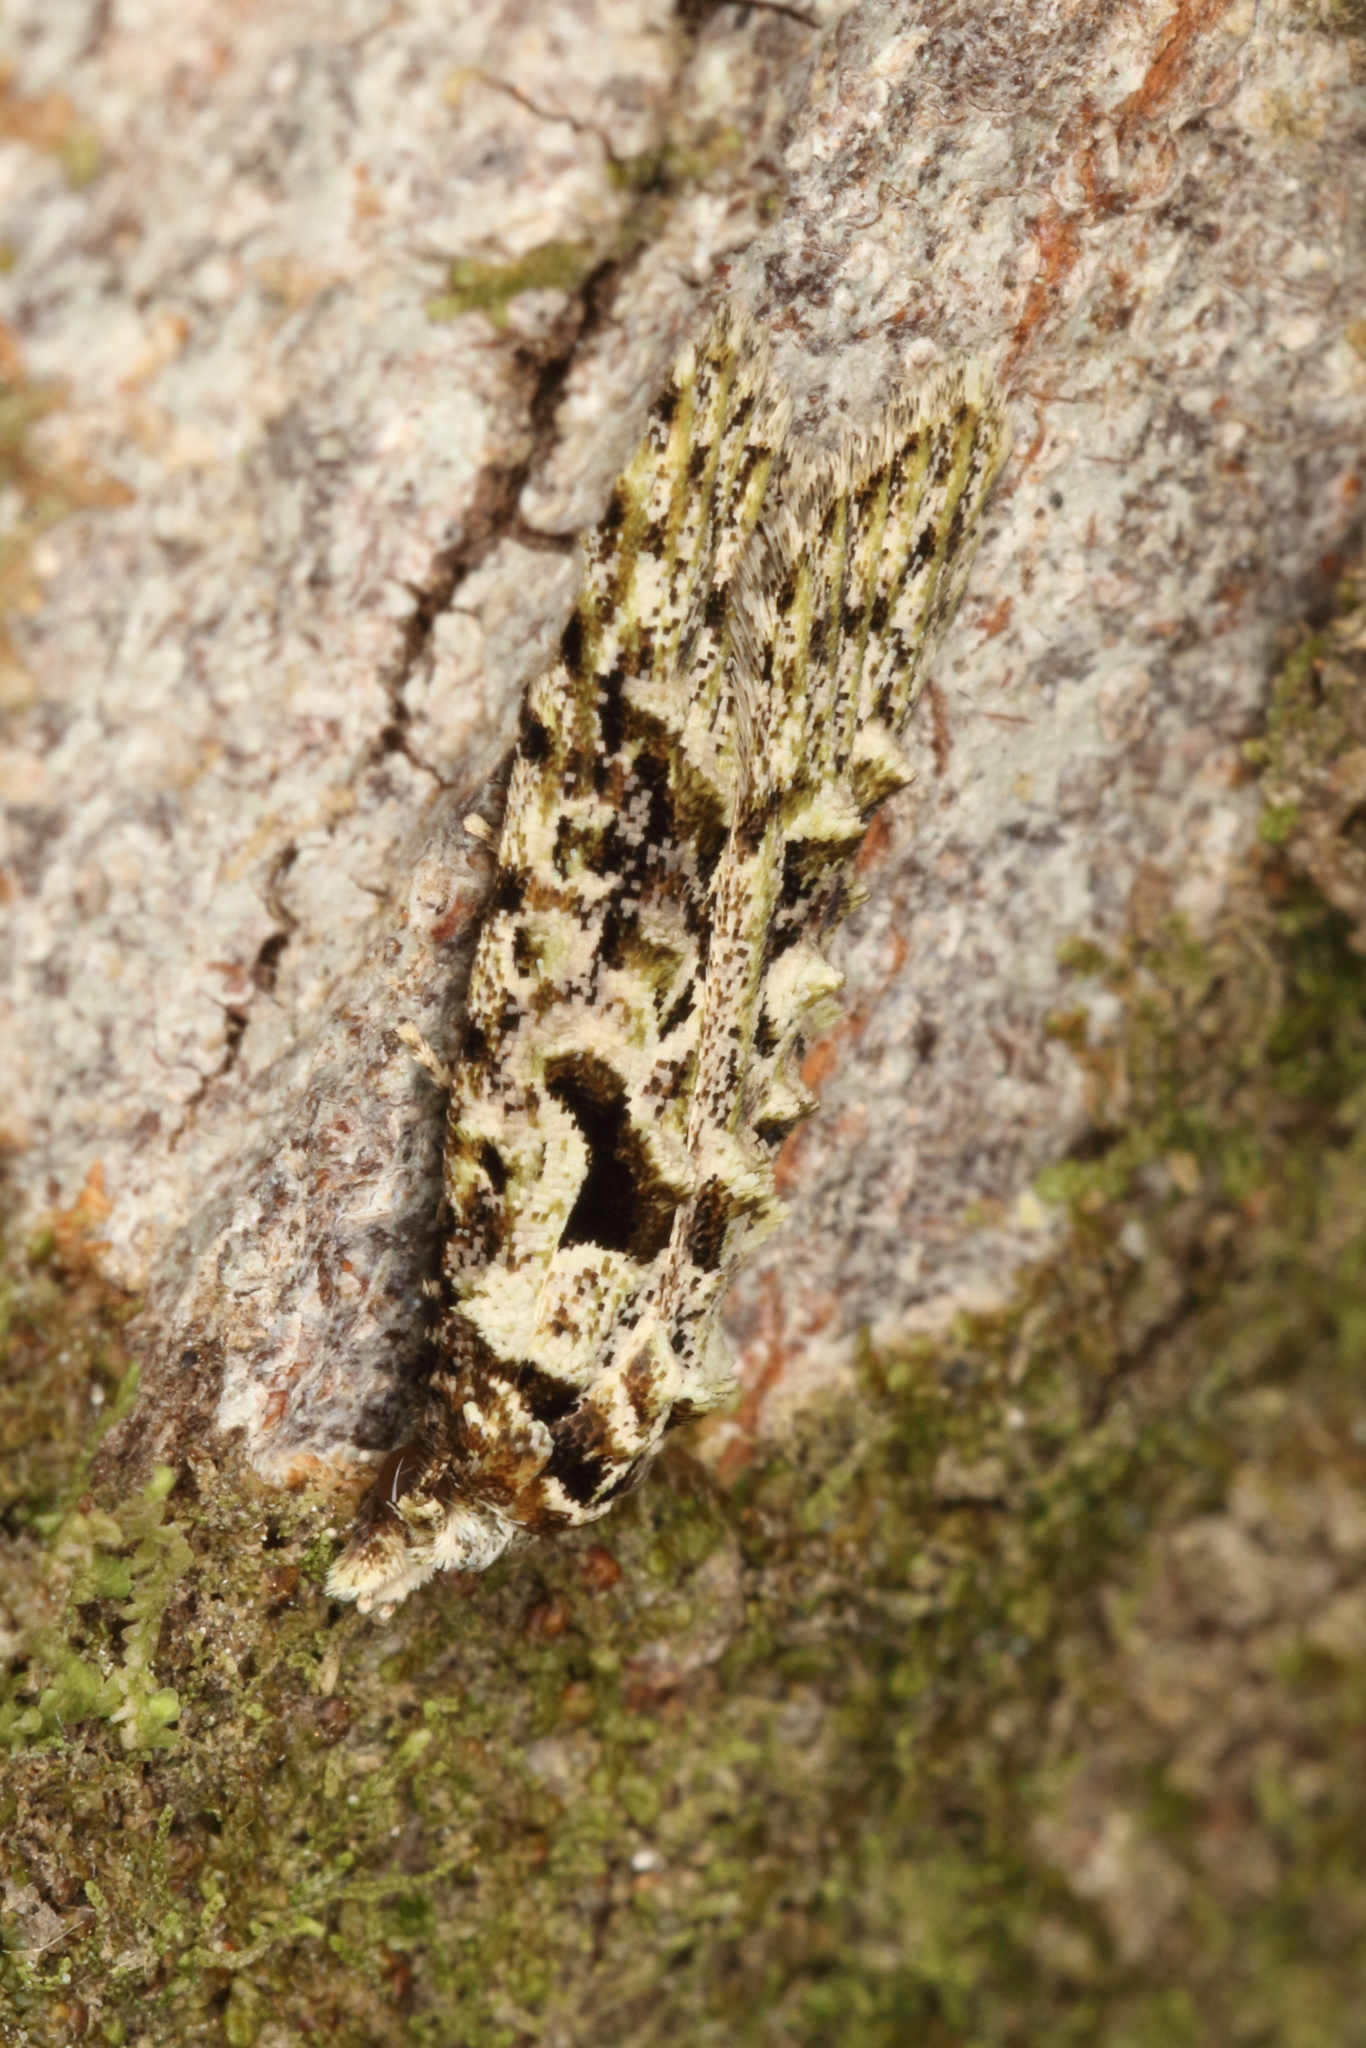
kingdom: Animalia
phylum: Arthropoda
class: Insecta
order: Lepidoptera
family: Carposinidae
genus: Carposina
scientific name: Carposina Heterocrossa eriphylla
